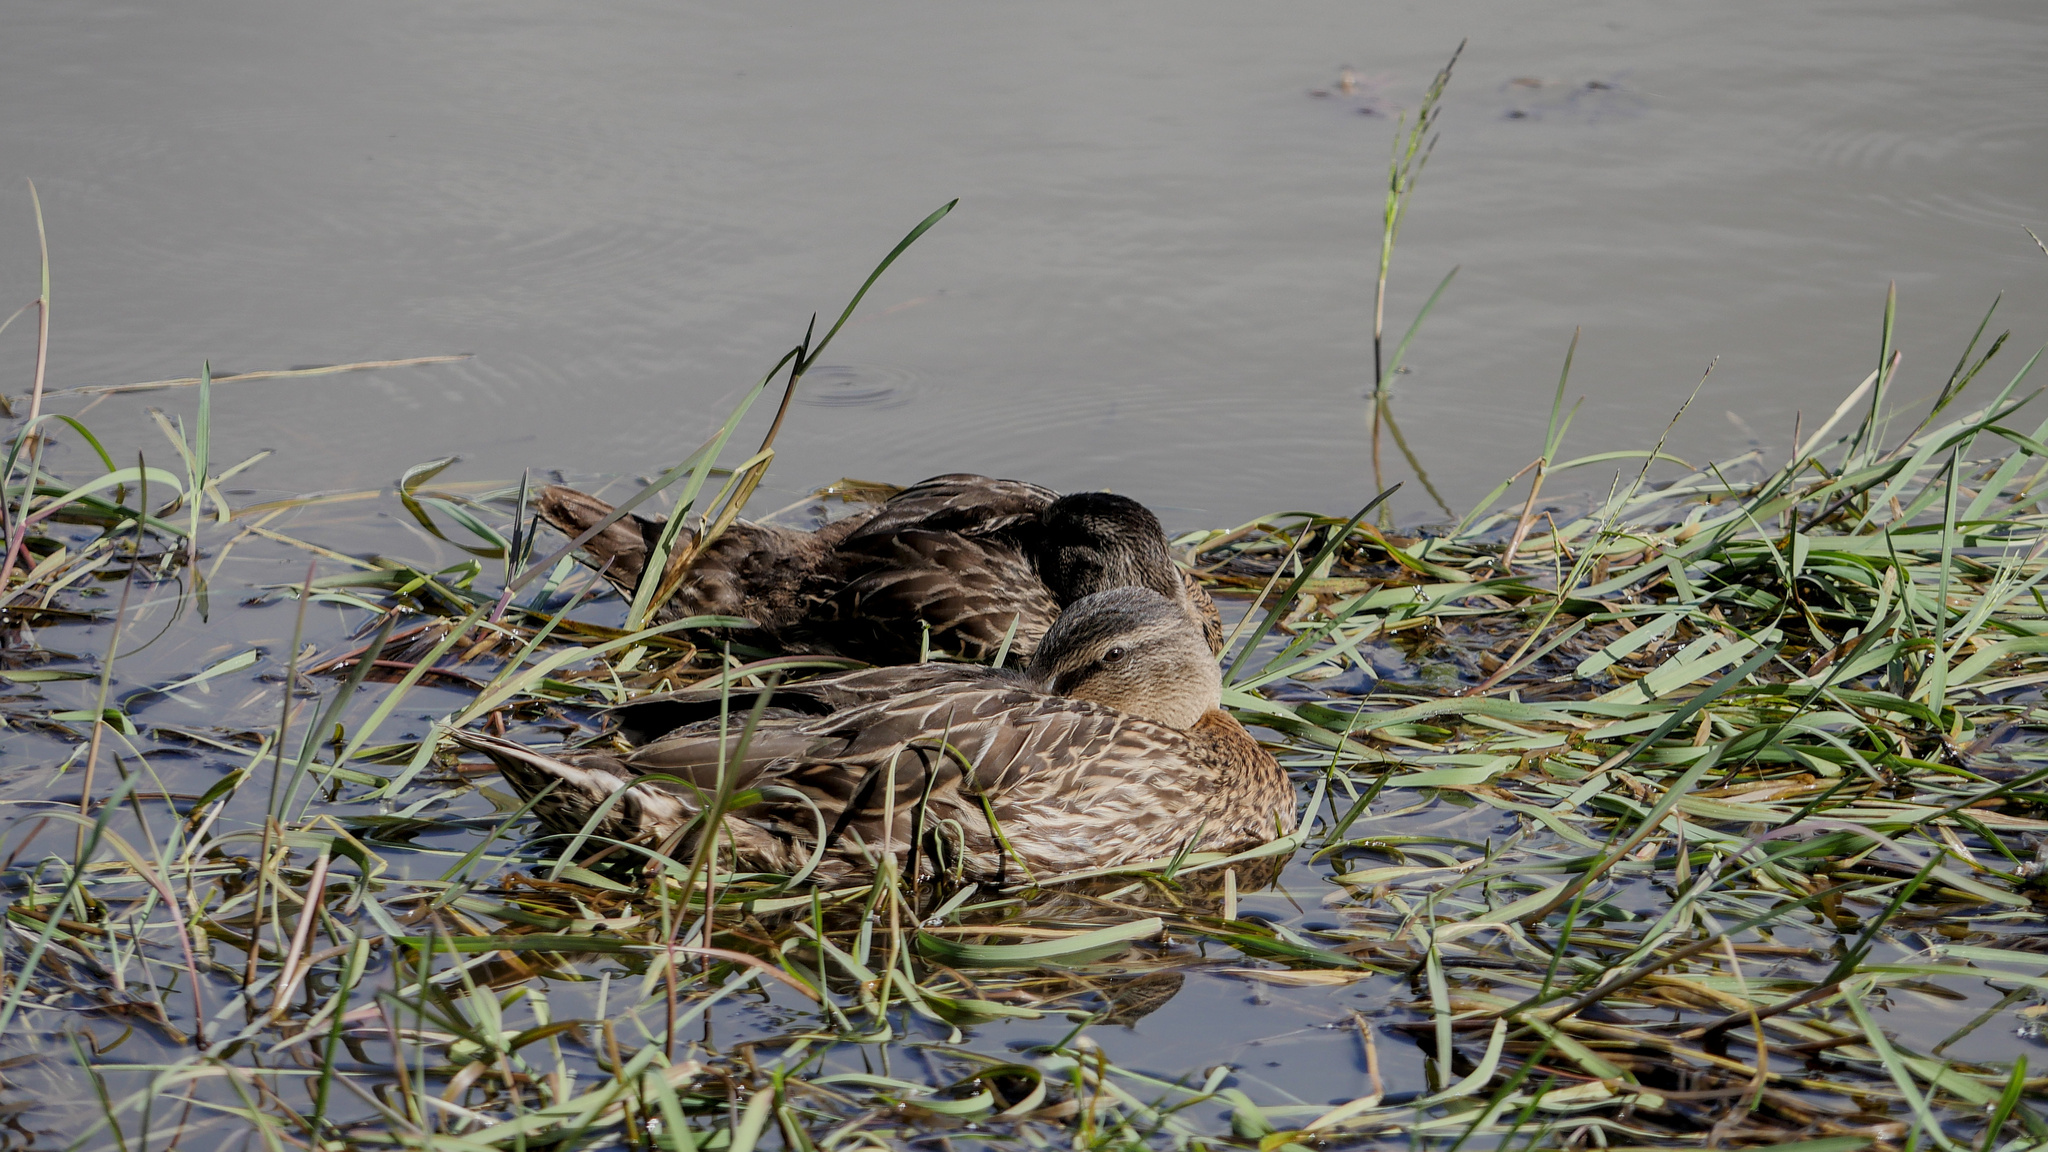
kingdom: Animalia
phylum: Chordata
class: Aves
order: Anseriformes
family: Anatidae
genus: Anas
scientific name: Anas
